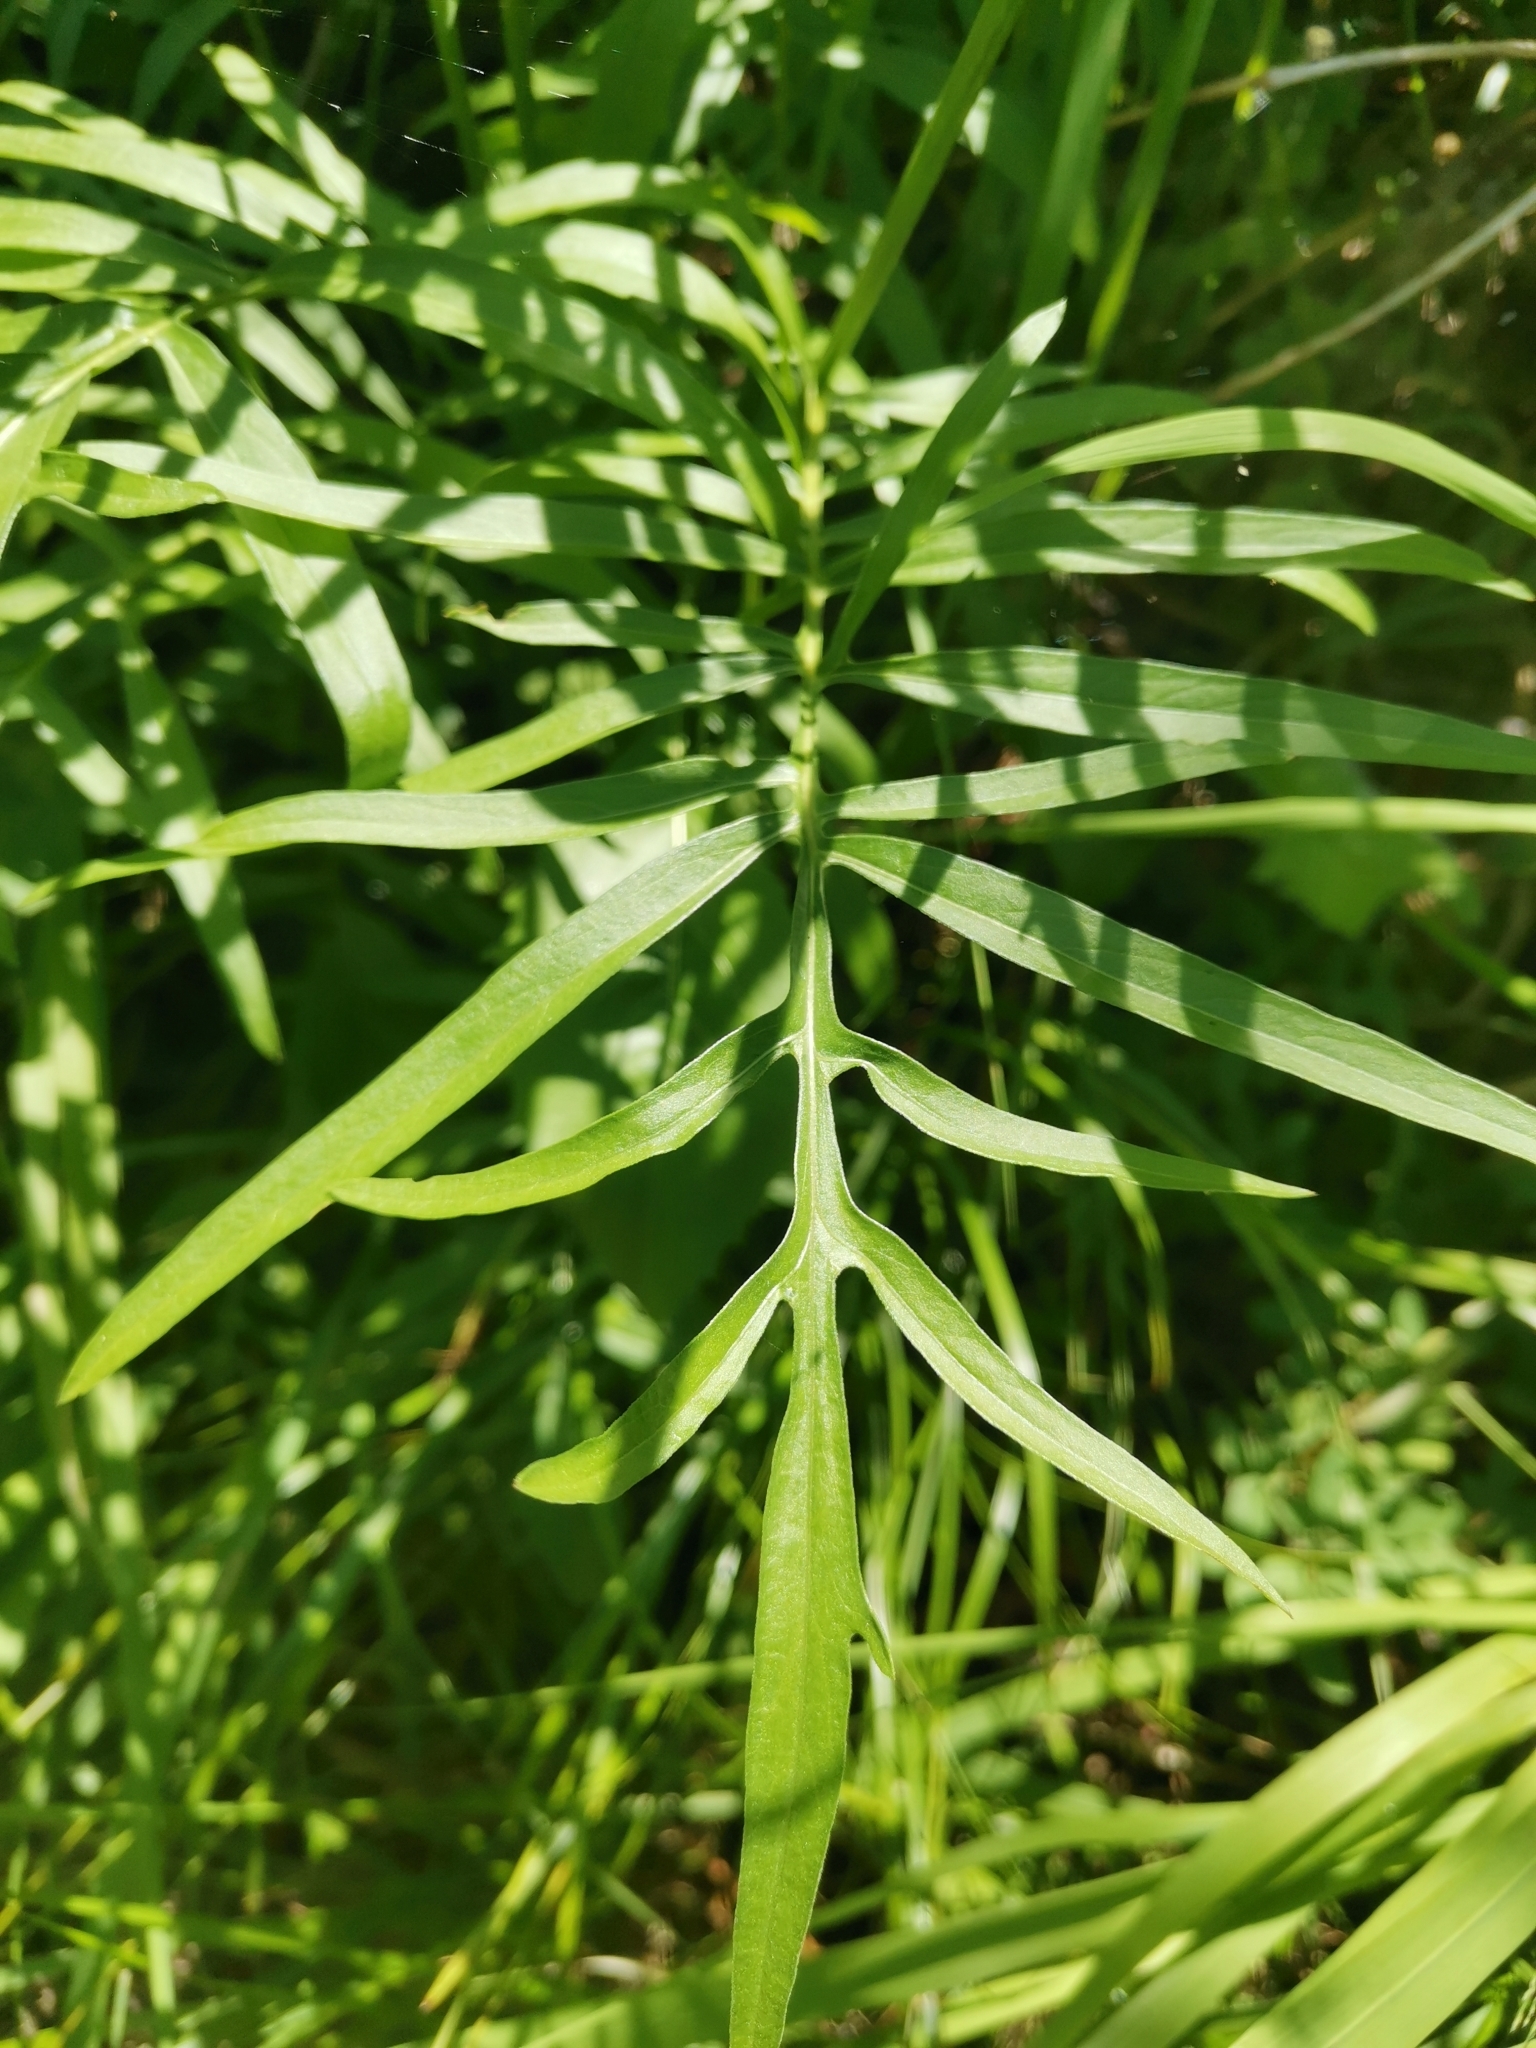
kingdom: Plantae
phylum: Tracheophyta
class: Magnoliopsida
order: Asterales
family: Asteraceae
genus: Centaurea
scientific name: Centaurea scabiosa
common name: Greater knapweed
